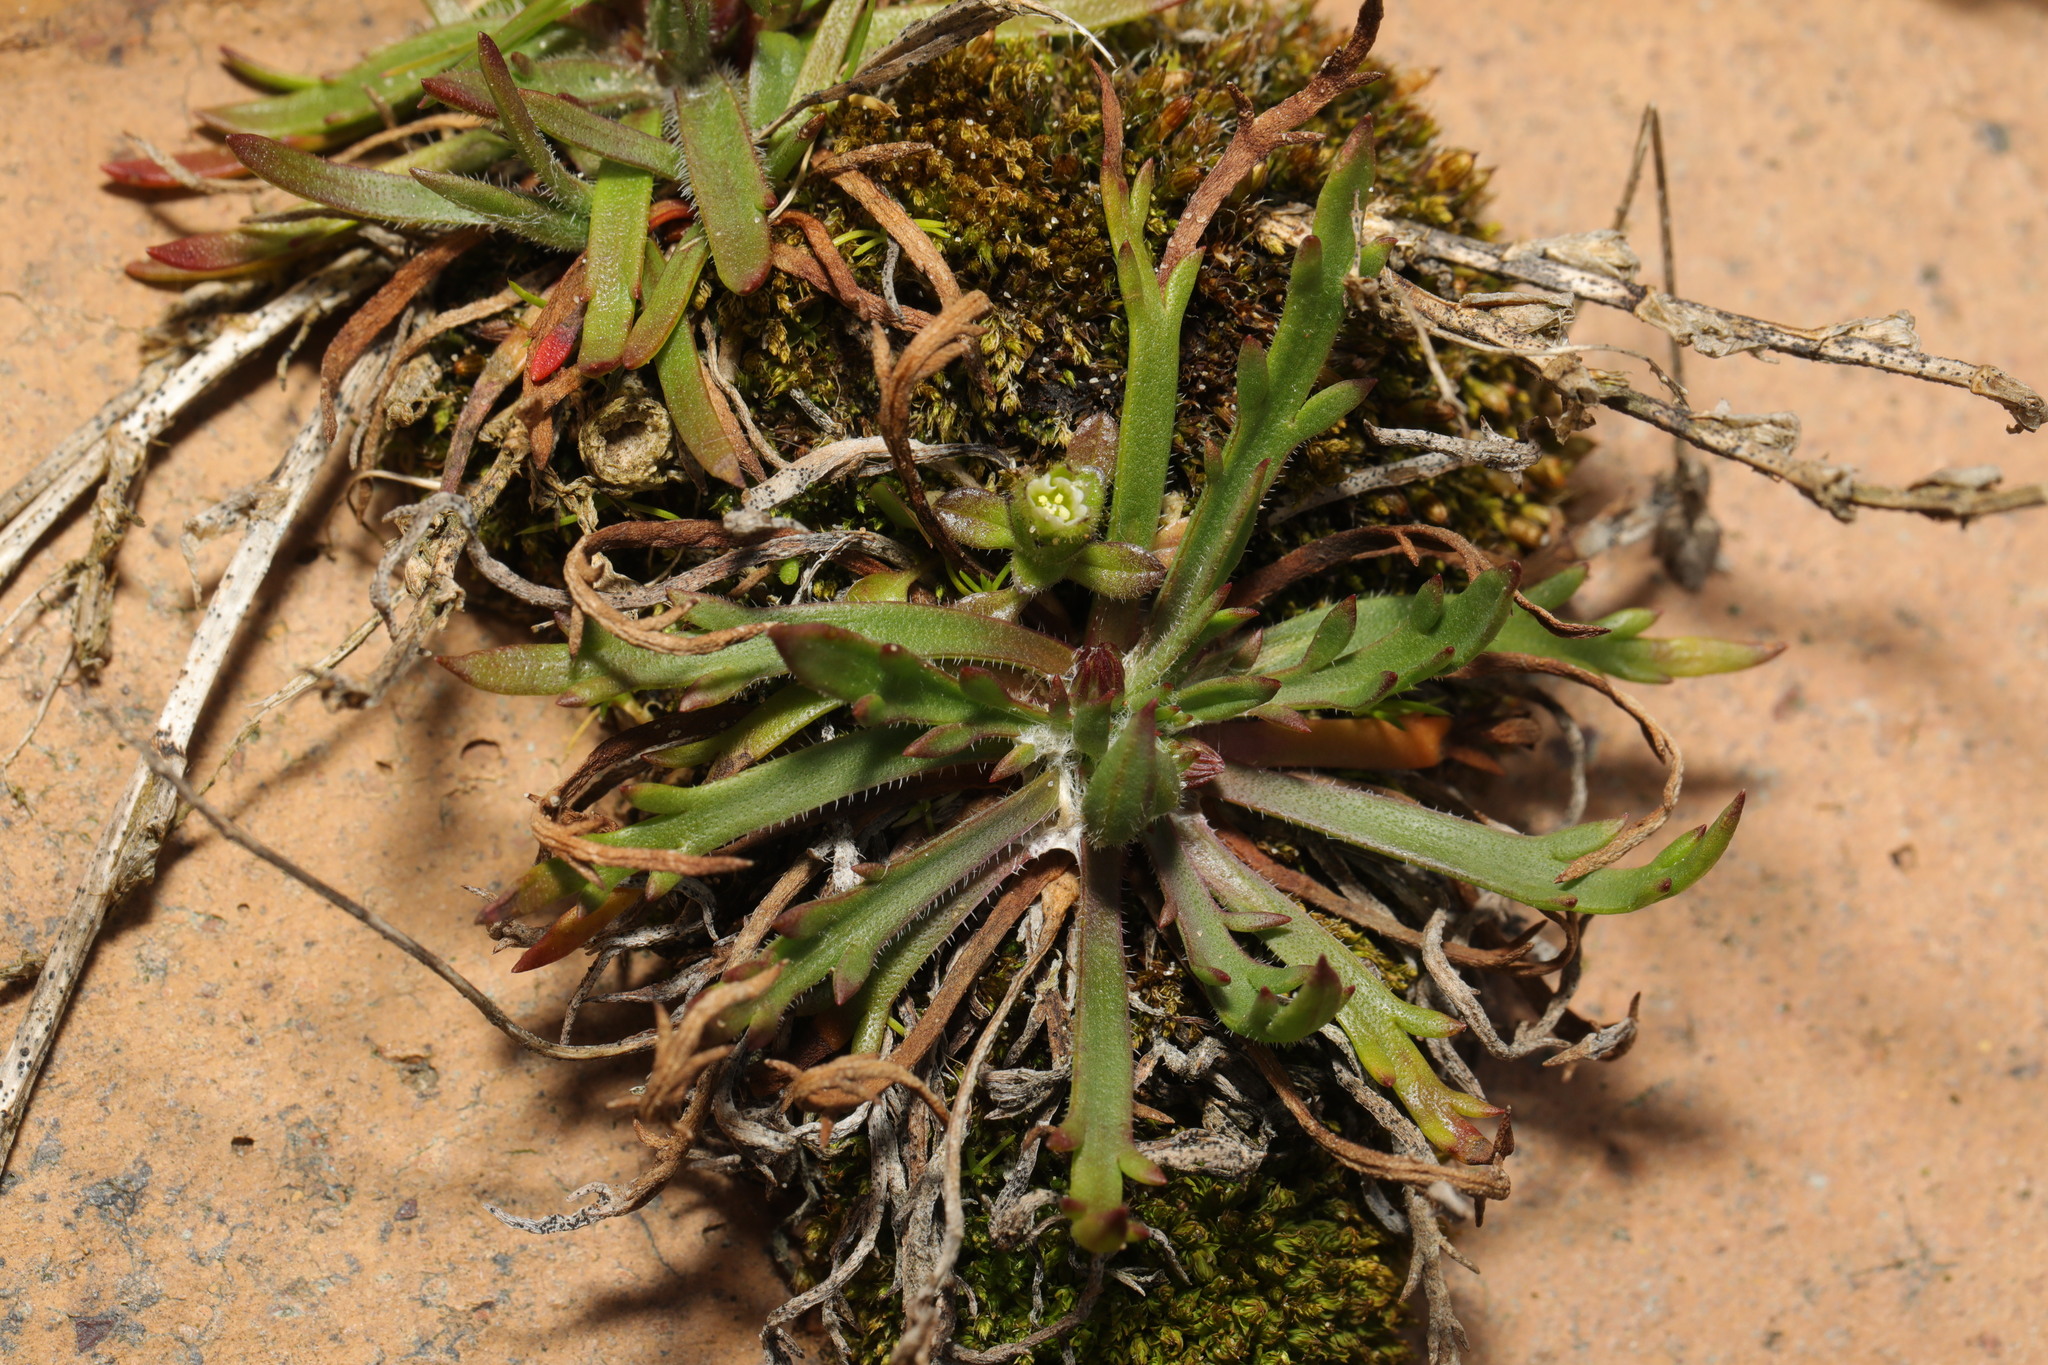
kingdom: Plantae
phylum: Tracheophyta
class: Magnoliopsida
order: Lamiales
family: Plantaginaceae
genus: Plantago
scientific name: Plantago coronopus
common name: Buck's-horn plantain
